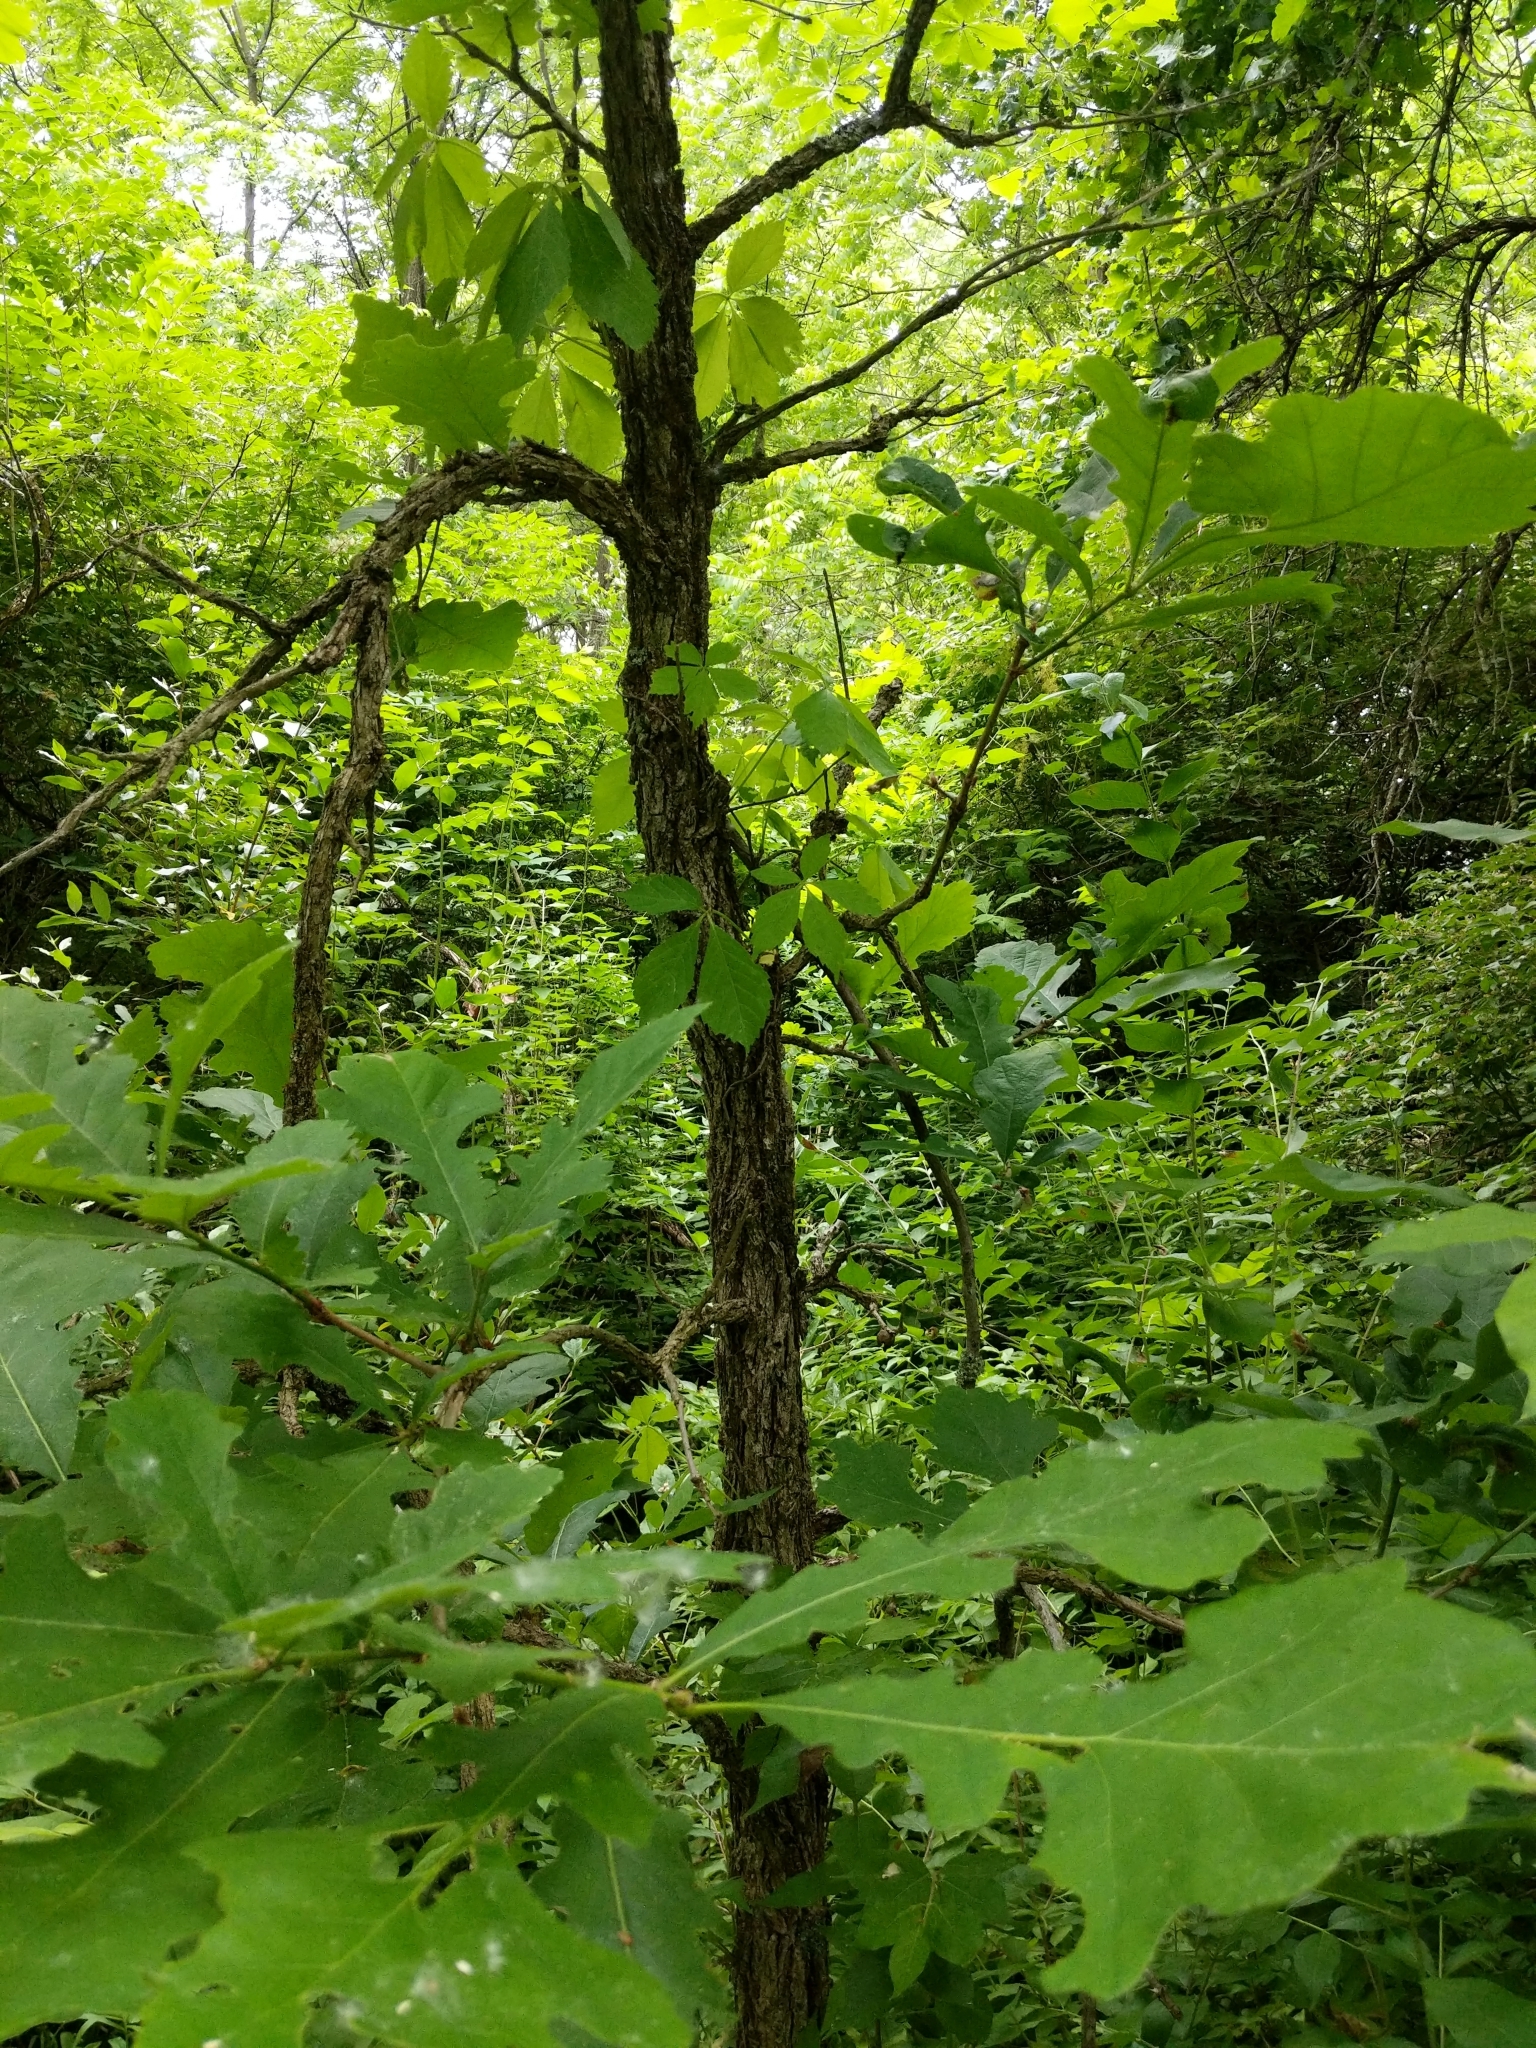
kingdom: Plantae
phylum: Tracheophyta
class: Magnoliopsida
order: Fagales
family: Fagaceae
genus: Quercus
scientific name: Quercus macrocarpa
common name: Bur oak
